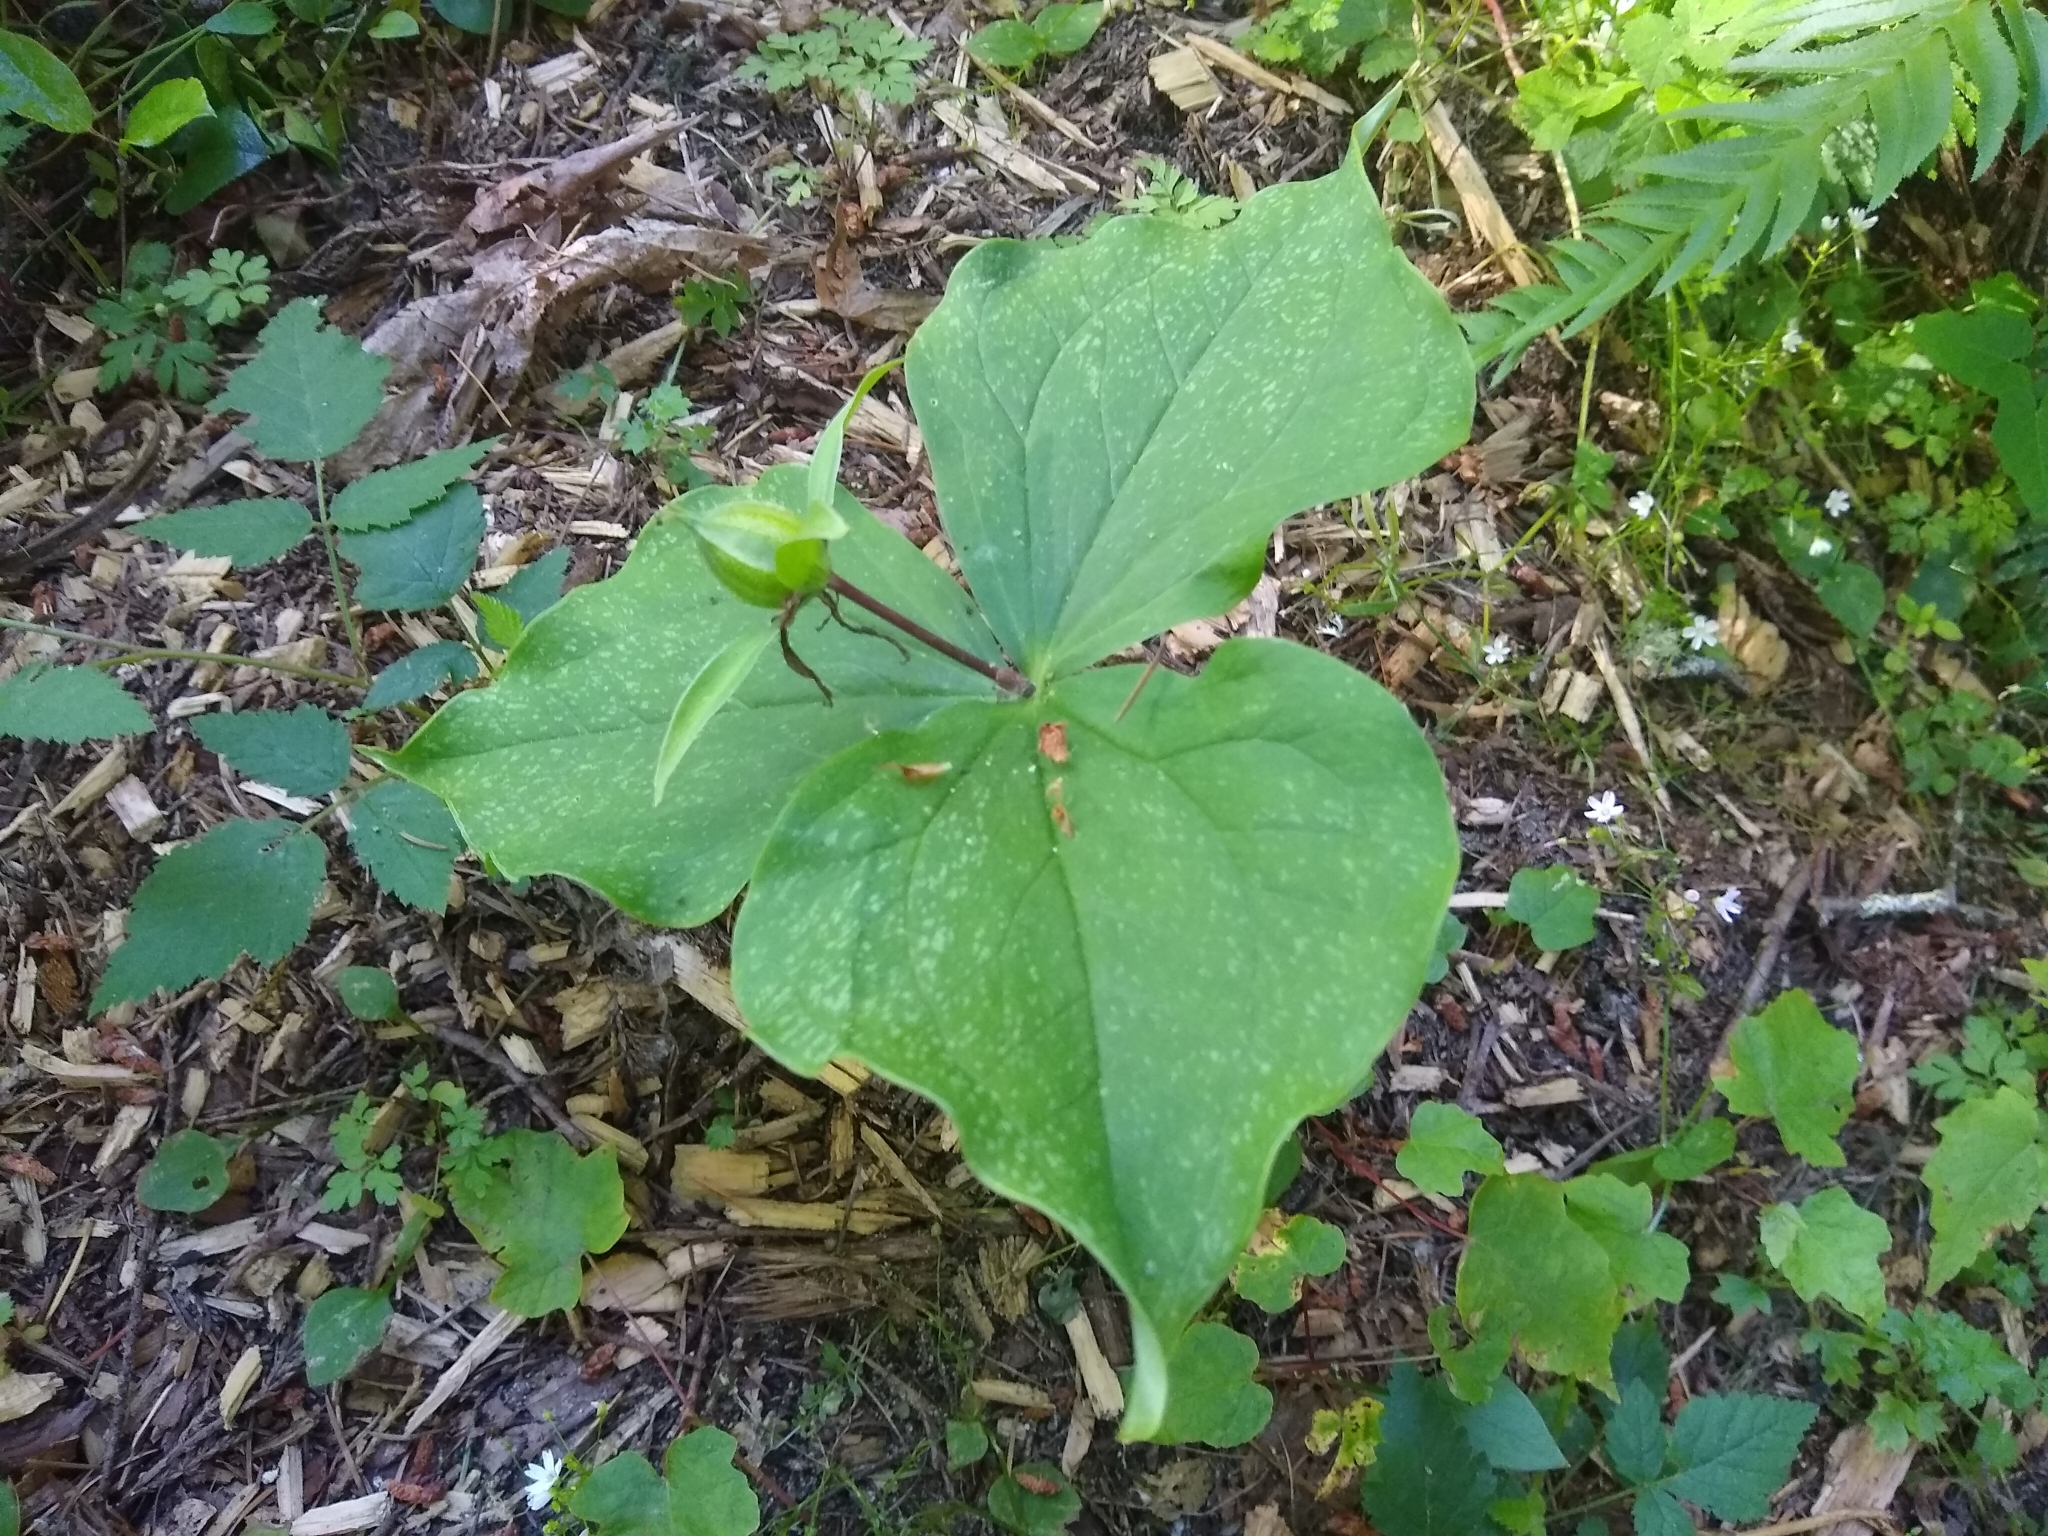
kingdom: Plantae
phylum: Tracheophyta
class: Liliopsida
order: Liliales
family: Melanthiaceae
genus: Trillium
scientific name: Trillium ovatum
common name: Pacific trillium
